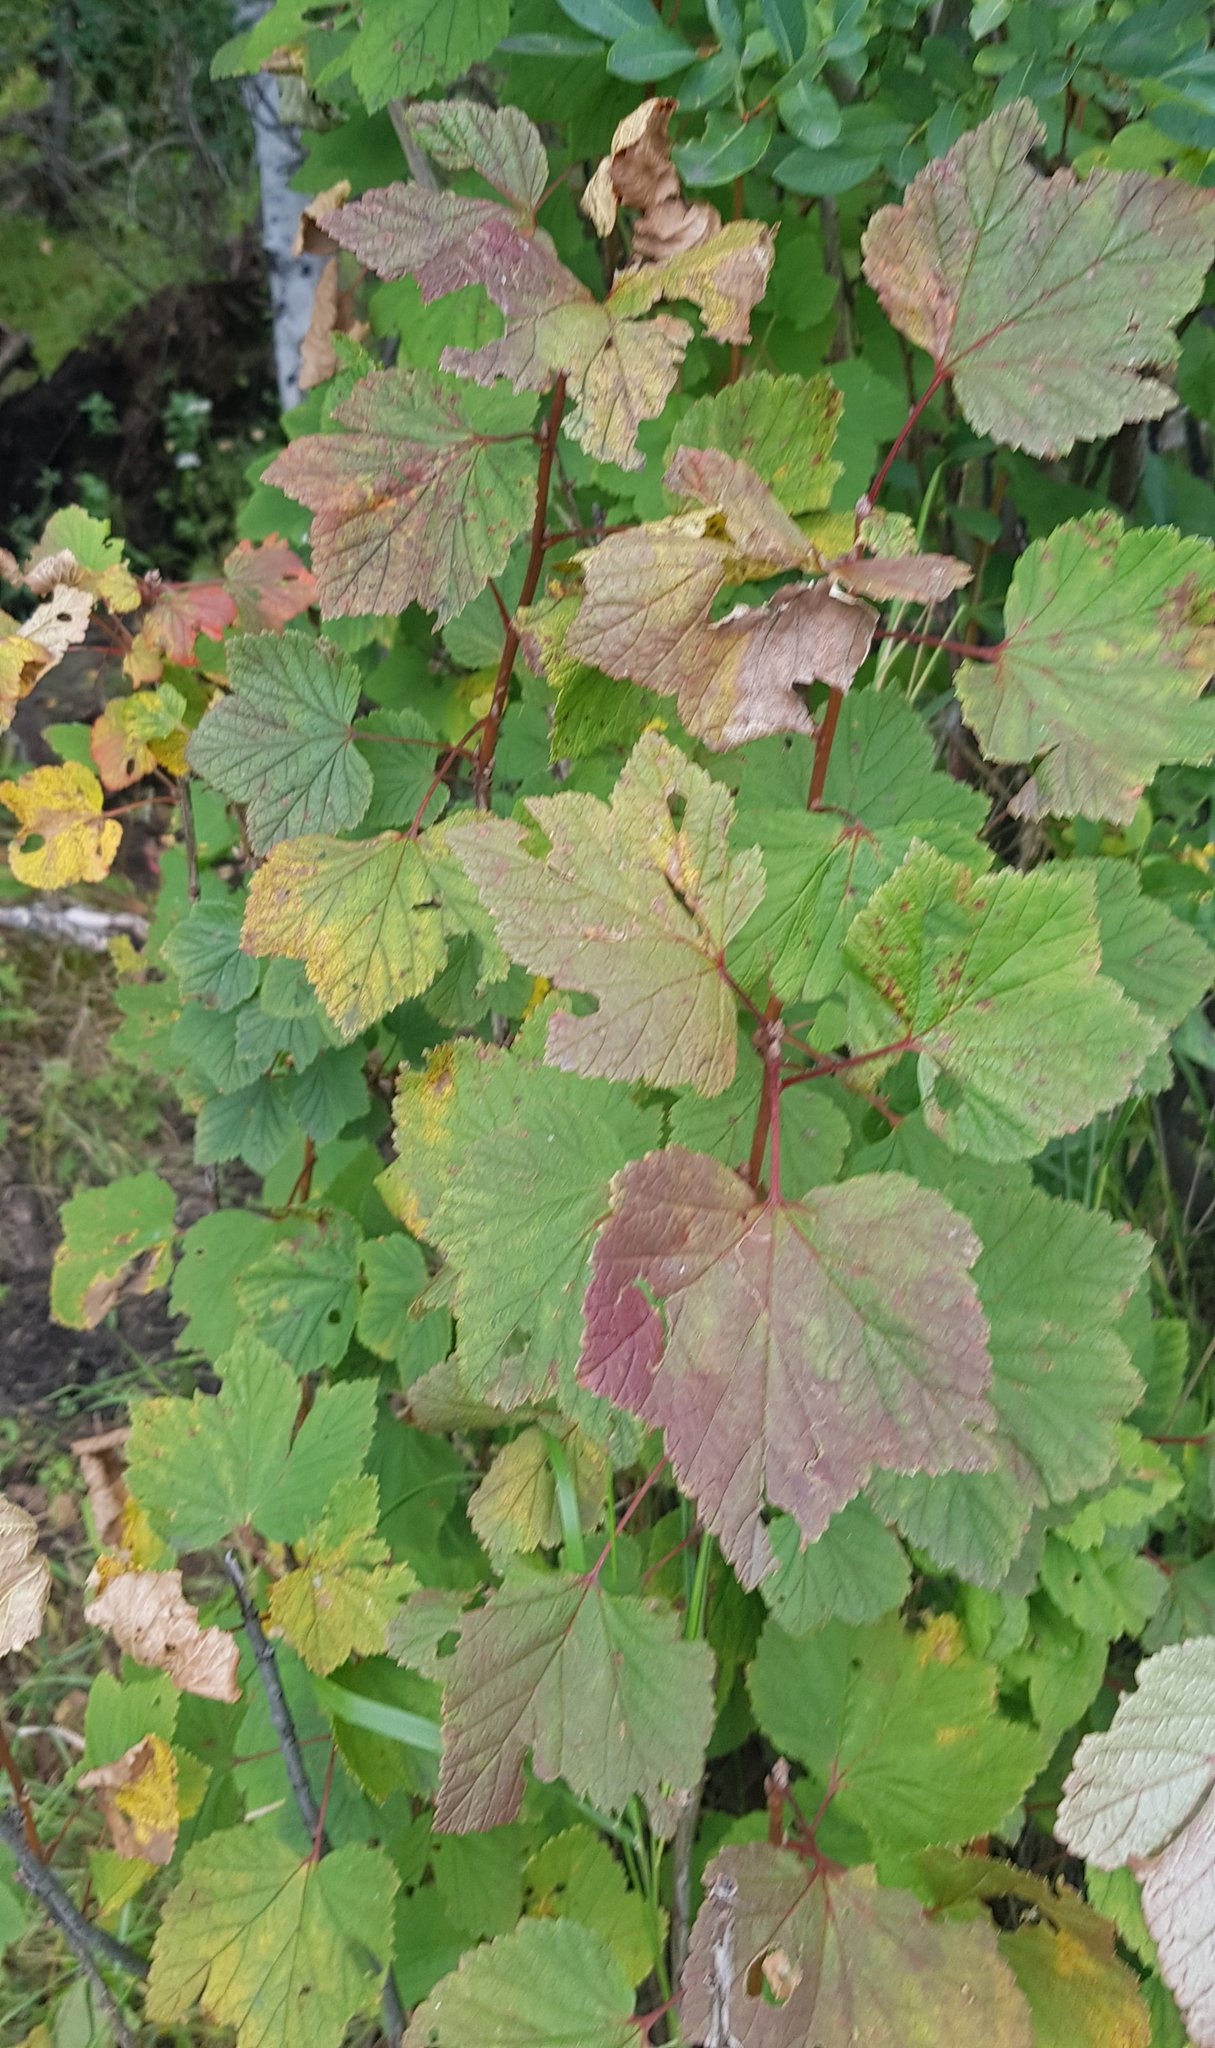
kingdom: Plantae
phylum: Tracheophyta
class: Magnoliopsida
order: Saxifragales
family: Grossulariaceae
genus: Ribes
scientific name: Ribes petraeum
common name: Rock currant
